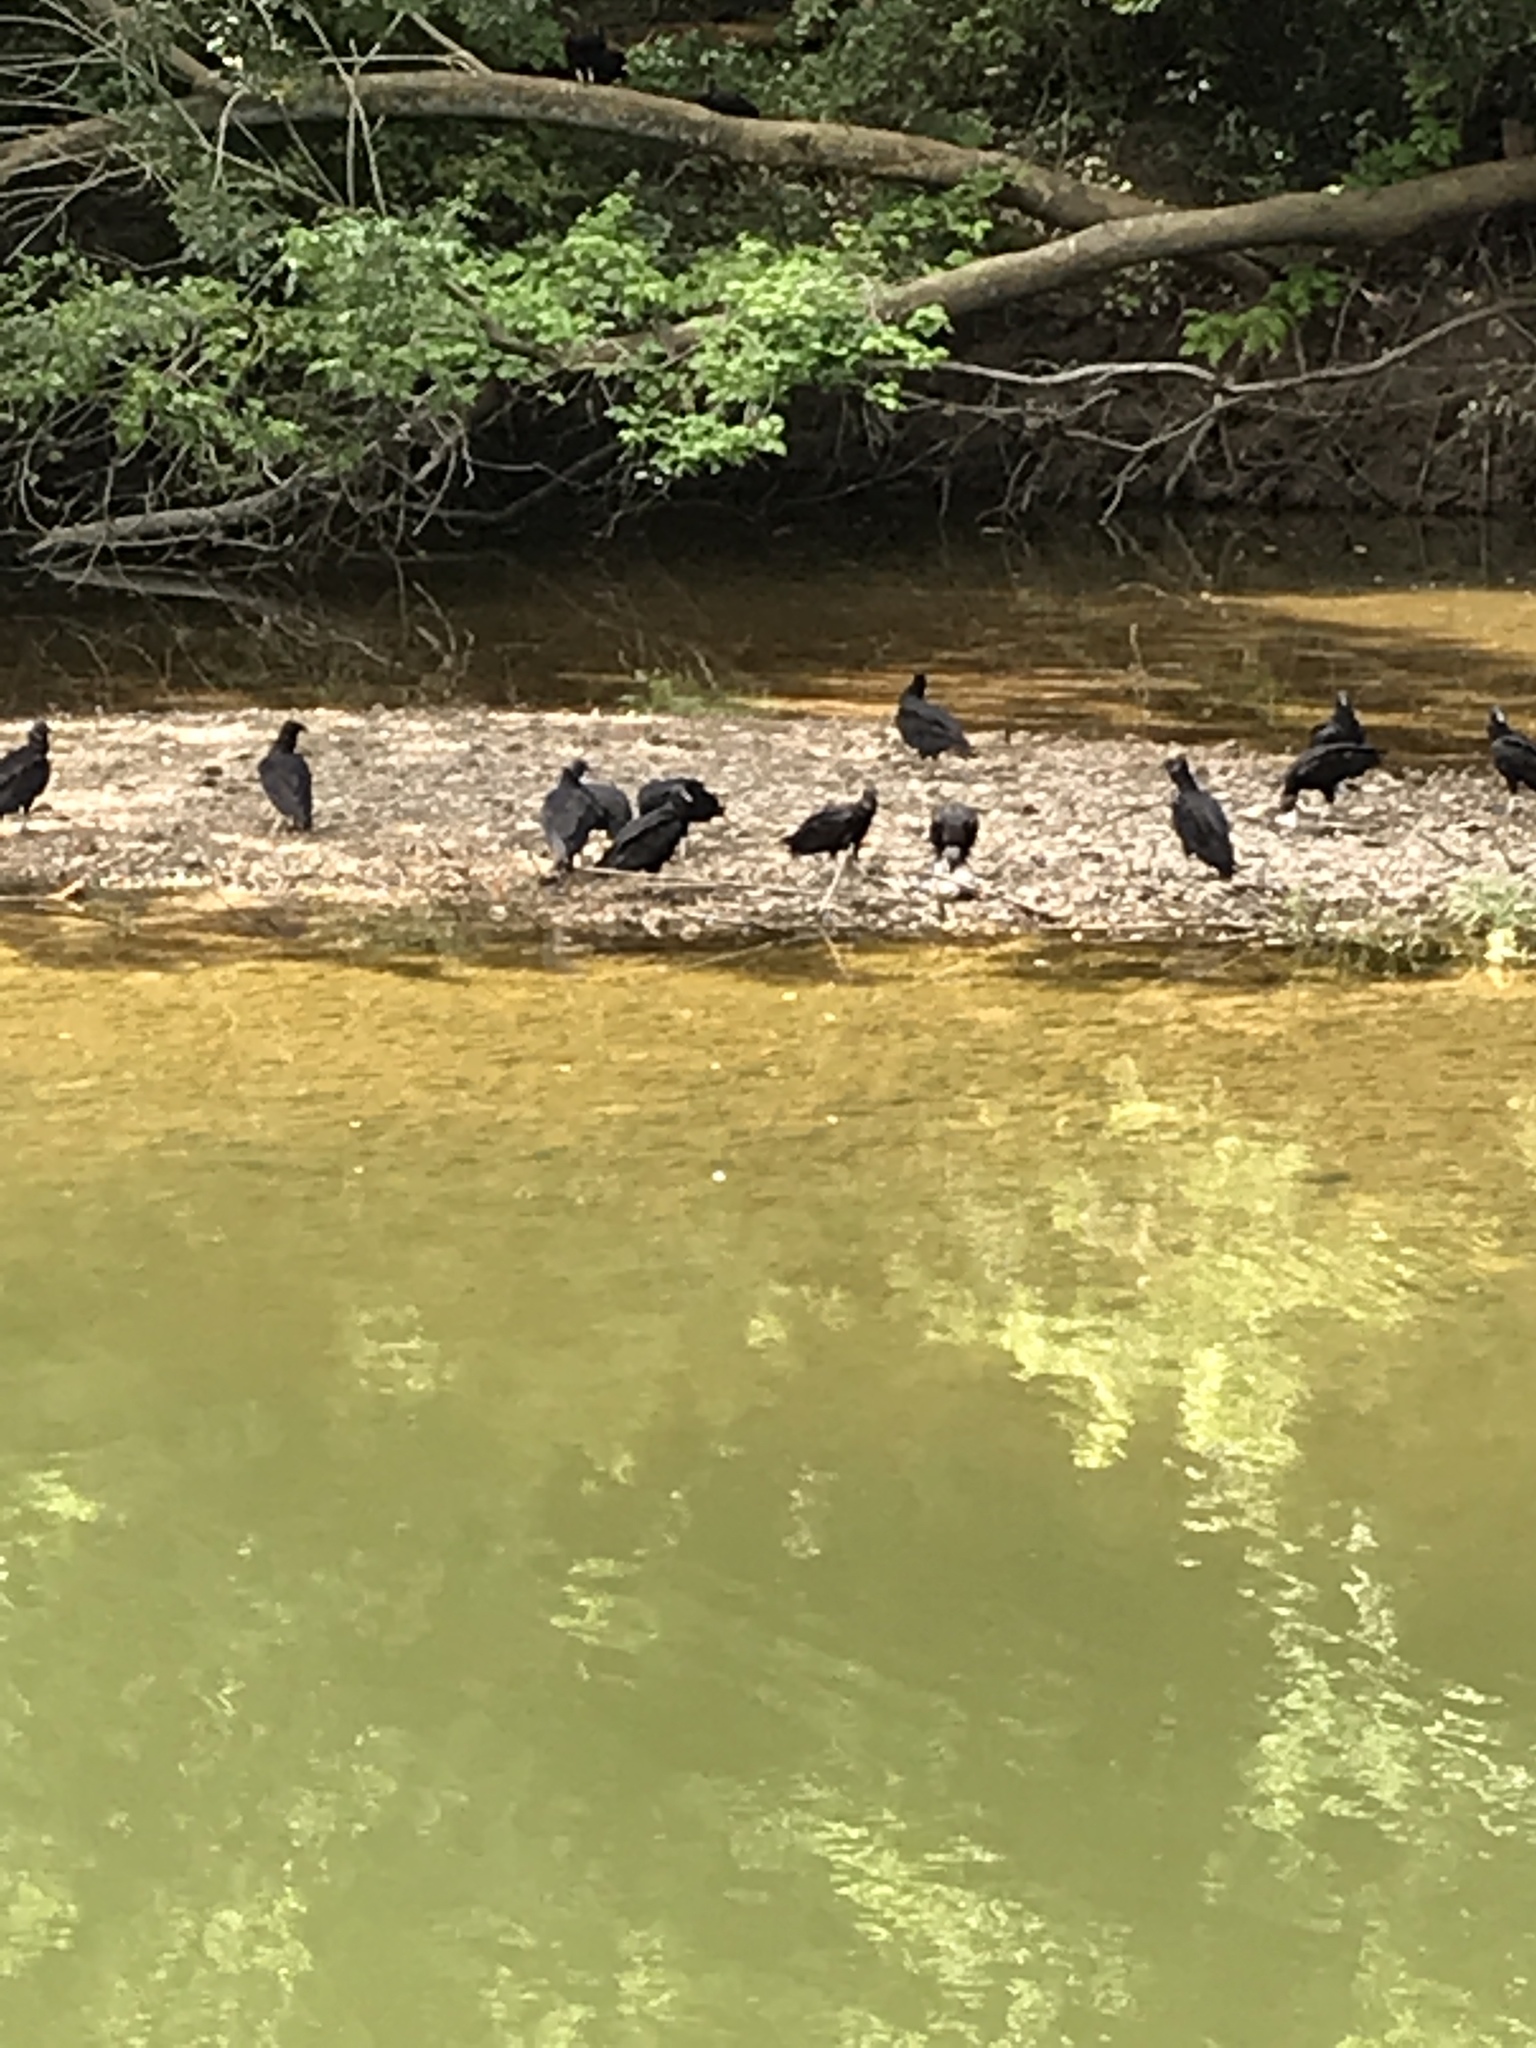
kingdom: Animalia
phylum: Chordata
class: Aves
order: Accipitriformes
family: Cathartidae
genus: Coragyps
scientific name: Coragyps atratus
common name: Black vulture
